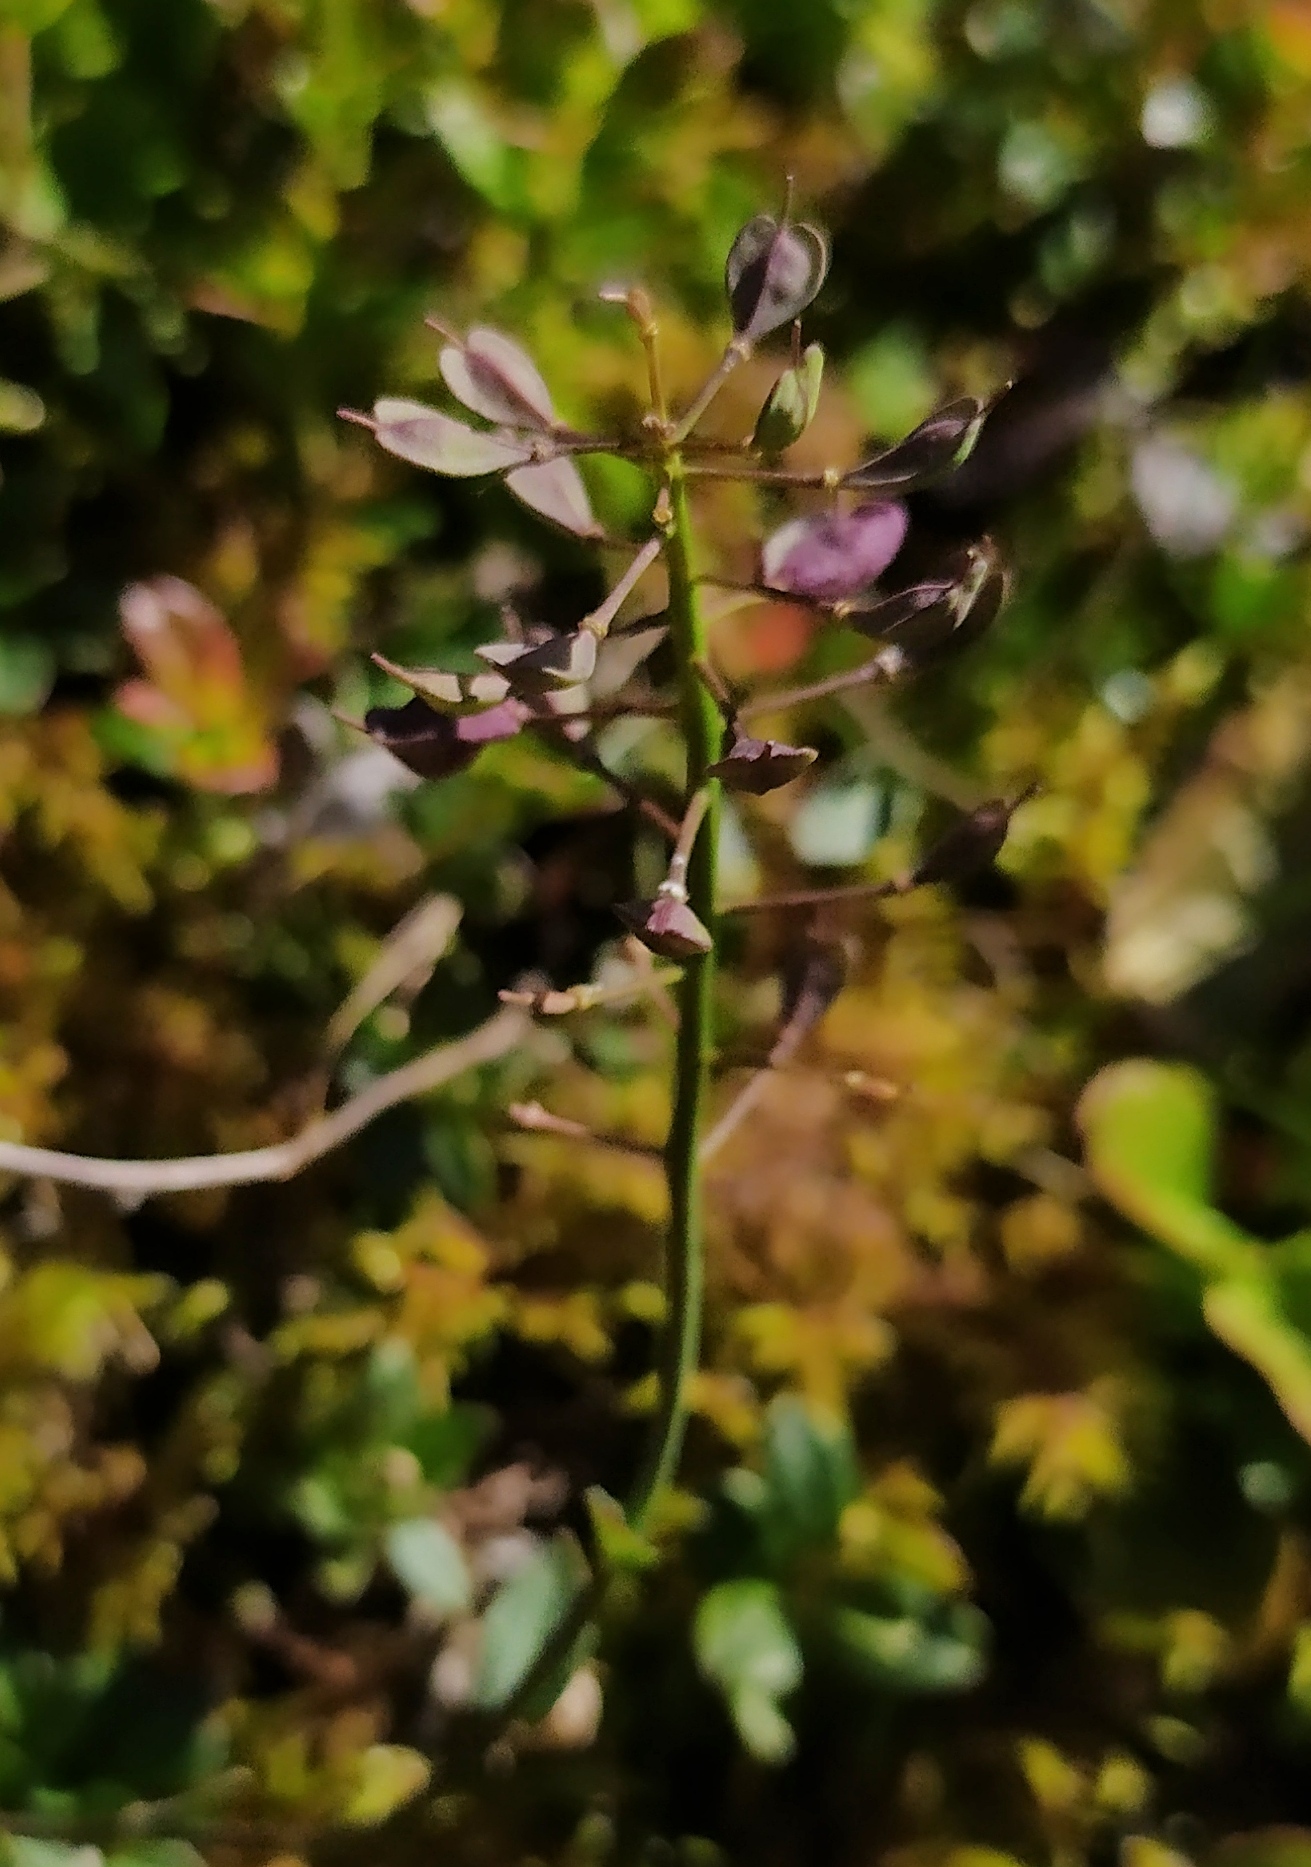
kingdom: Plantae
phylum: Tracheophyta
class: Magnoliopsida
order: Brassicales
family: Brassicaceae
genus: Noccaea
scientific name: Noccaea alpestris
